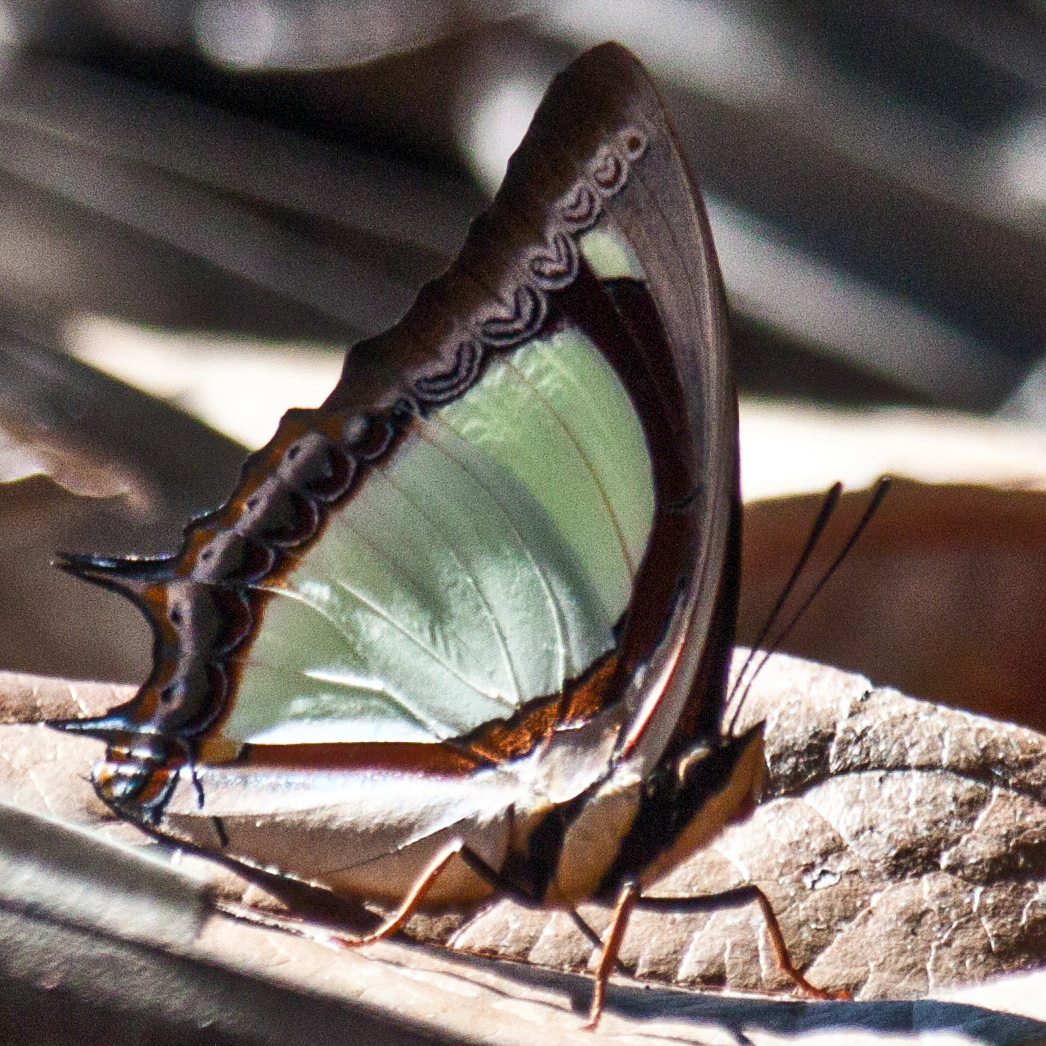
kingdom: Animalia
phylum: Arthropoda
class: Insecta
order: Lepidoptera
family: Nymphalidae
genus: Polyura
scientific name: Polyura jalysus
